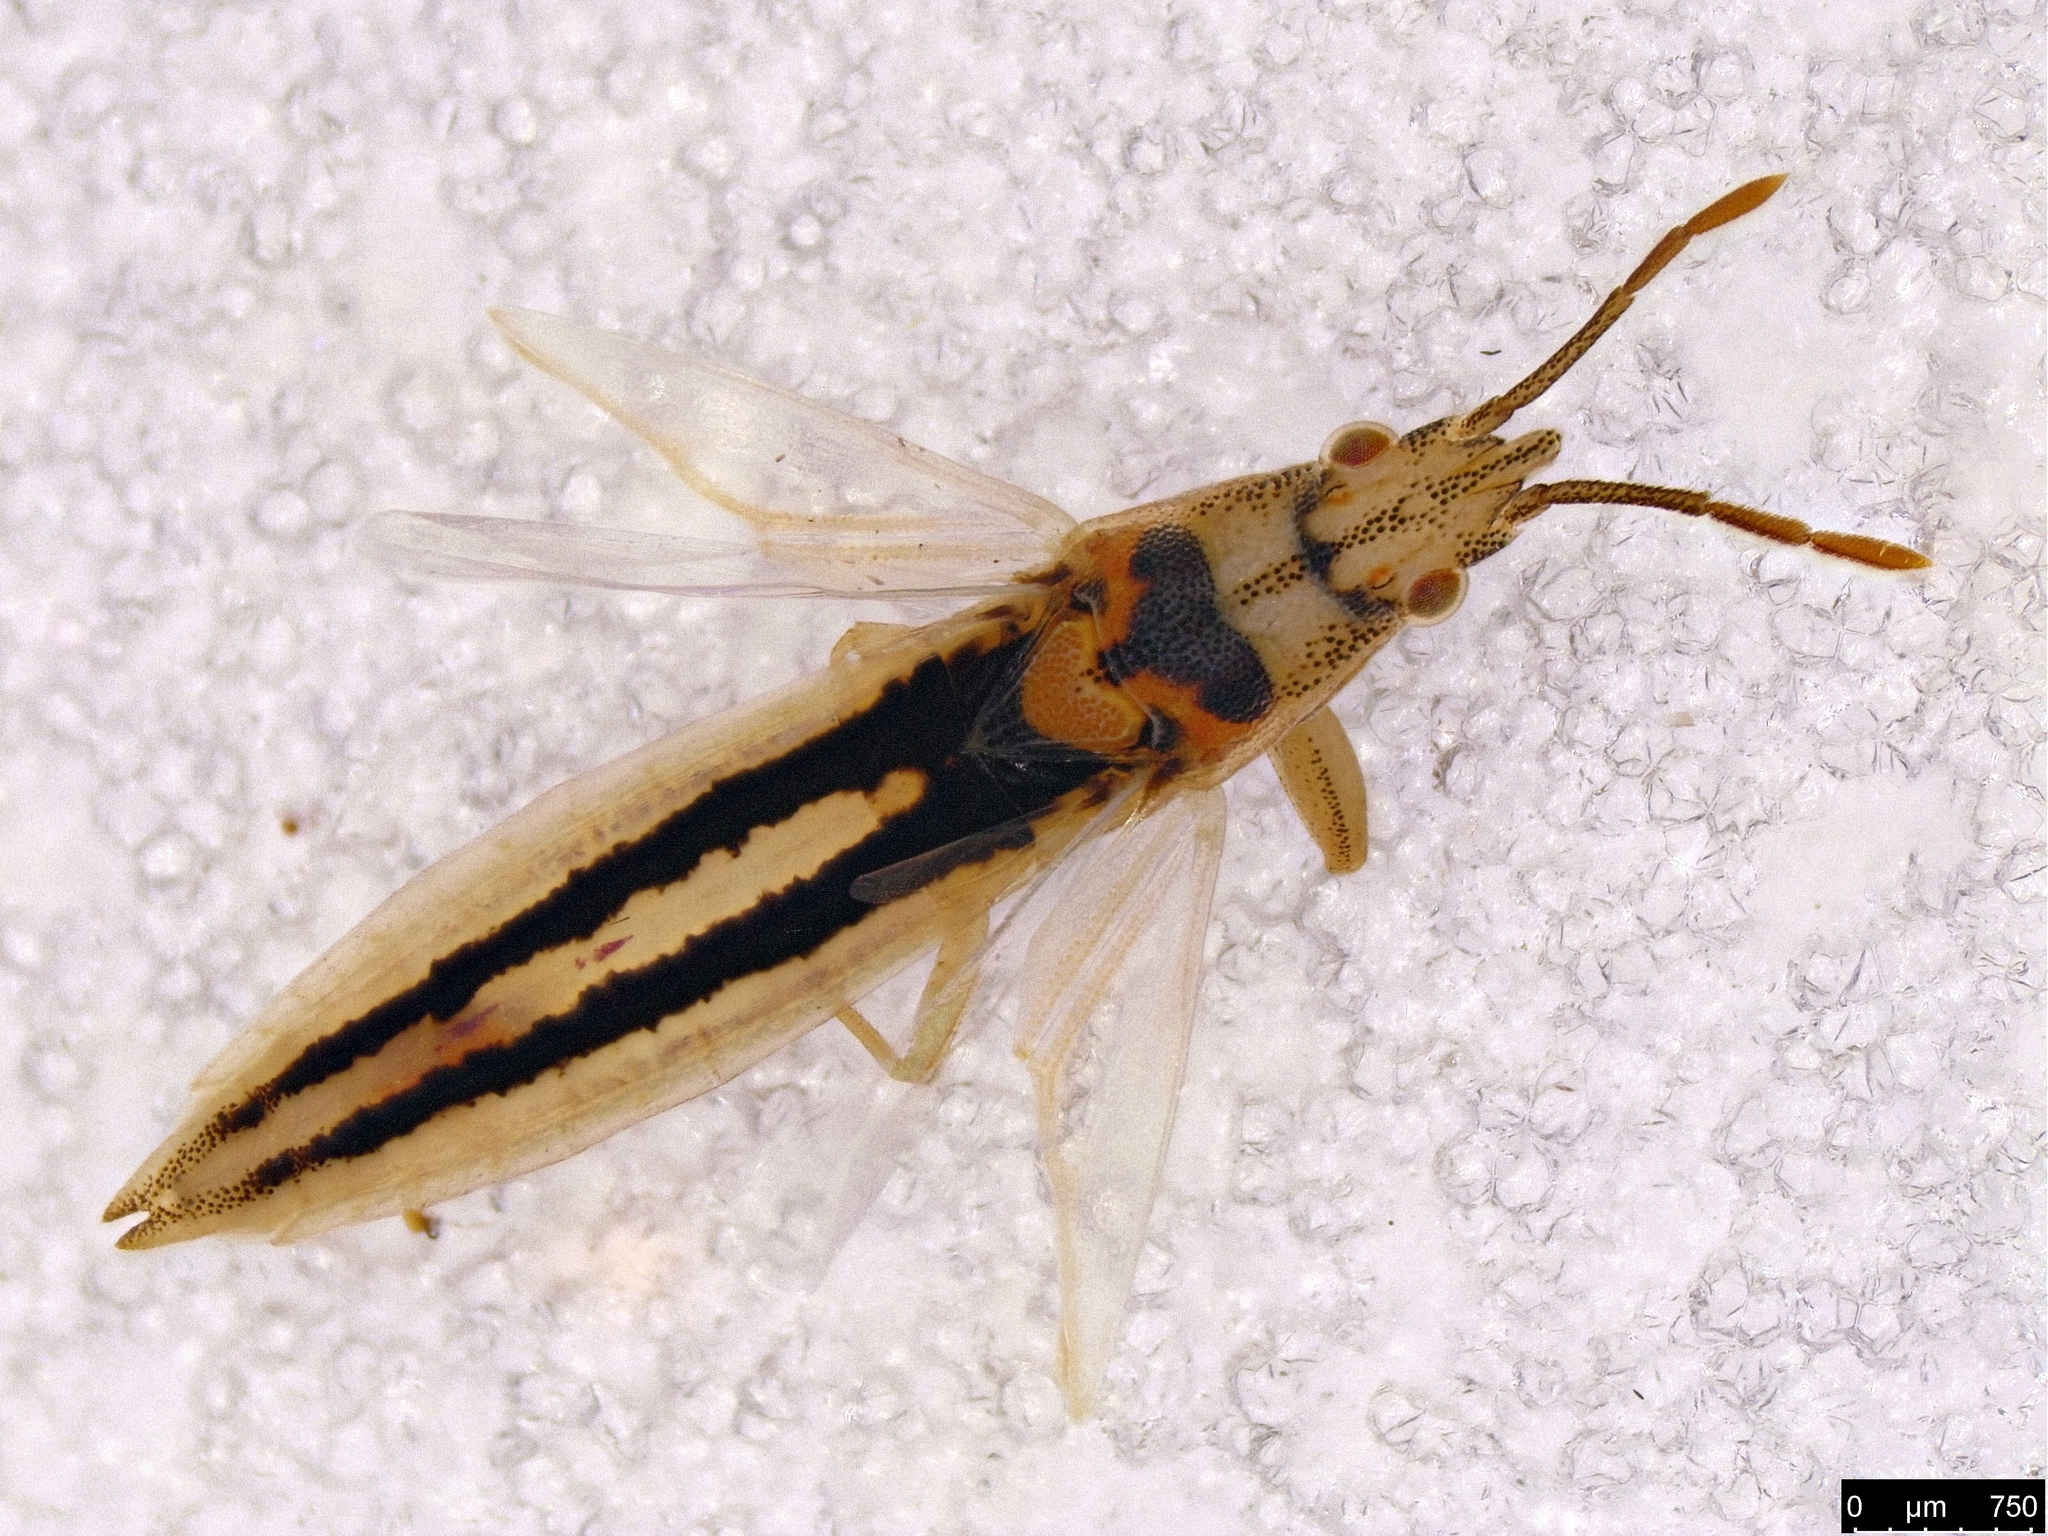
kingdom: Animalia
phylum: Arthropoda
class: Insecta
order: Hemiptera
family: Pachygronthidae
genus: Stenophyella
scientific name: Stenophyella macreta
